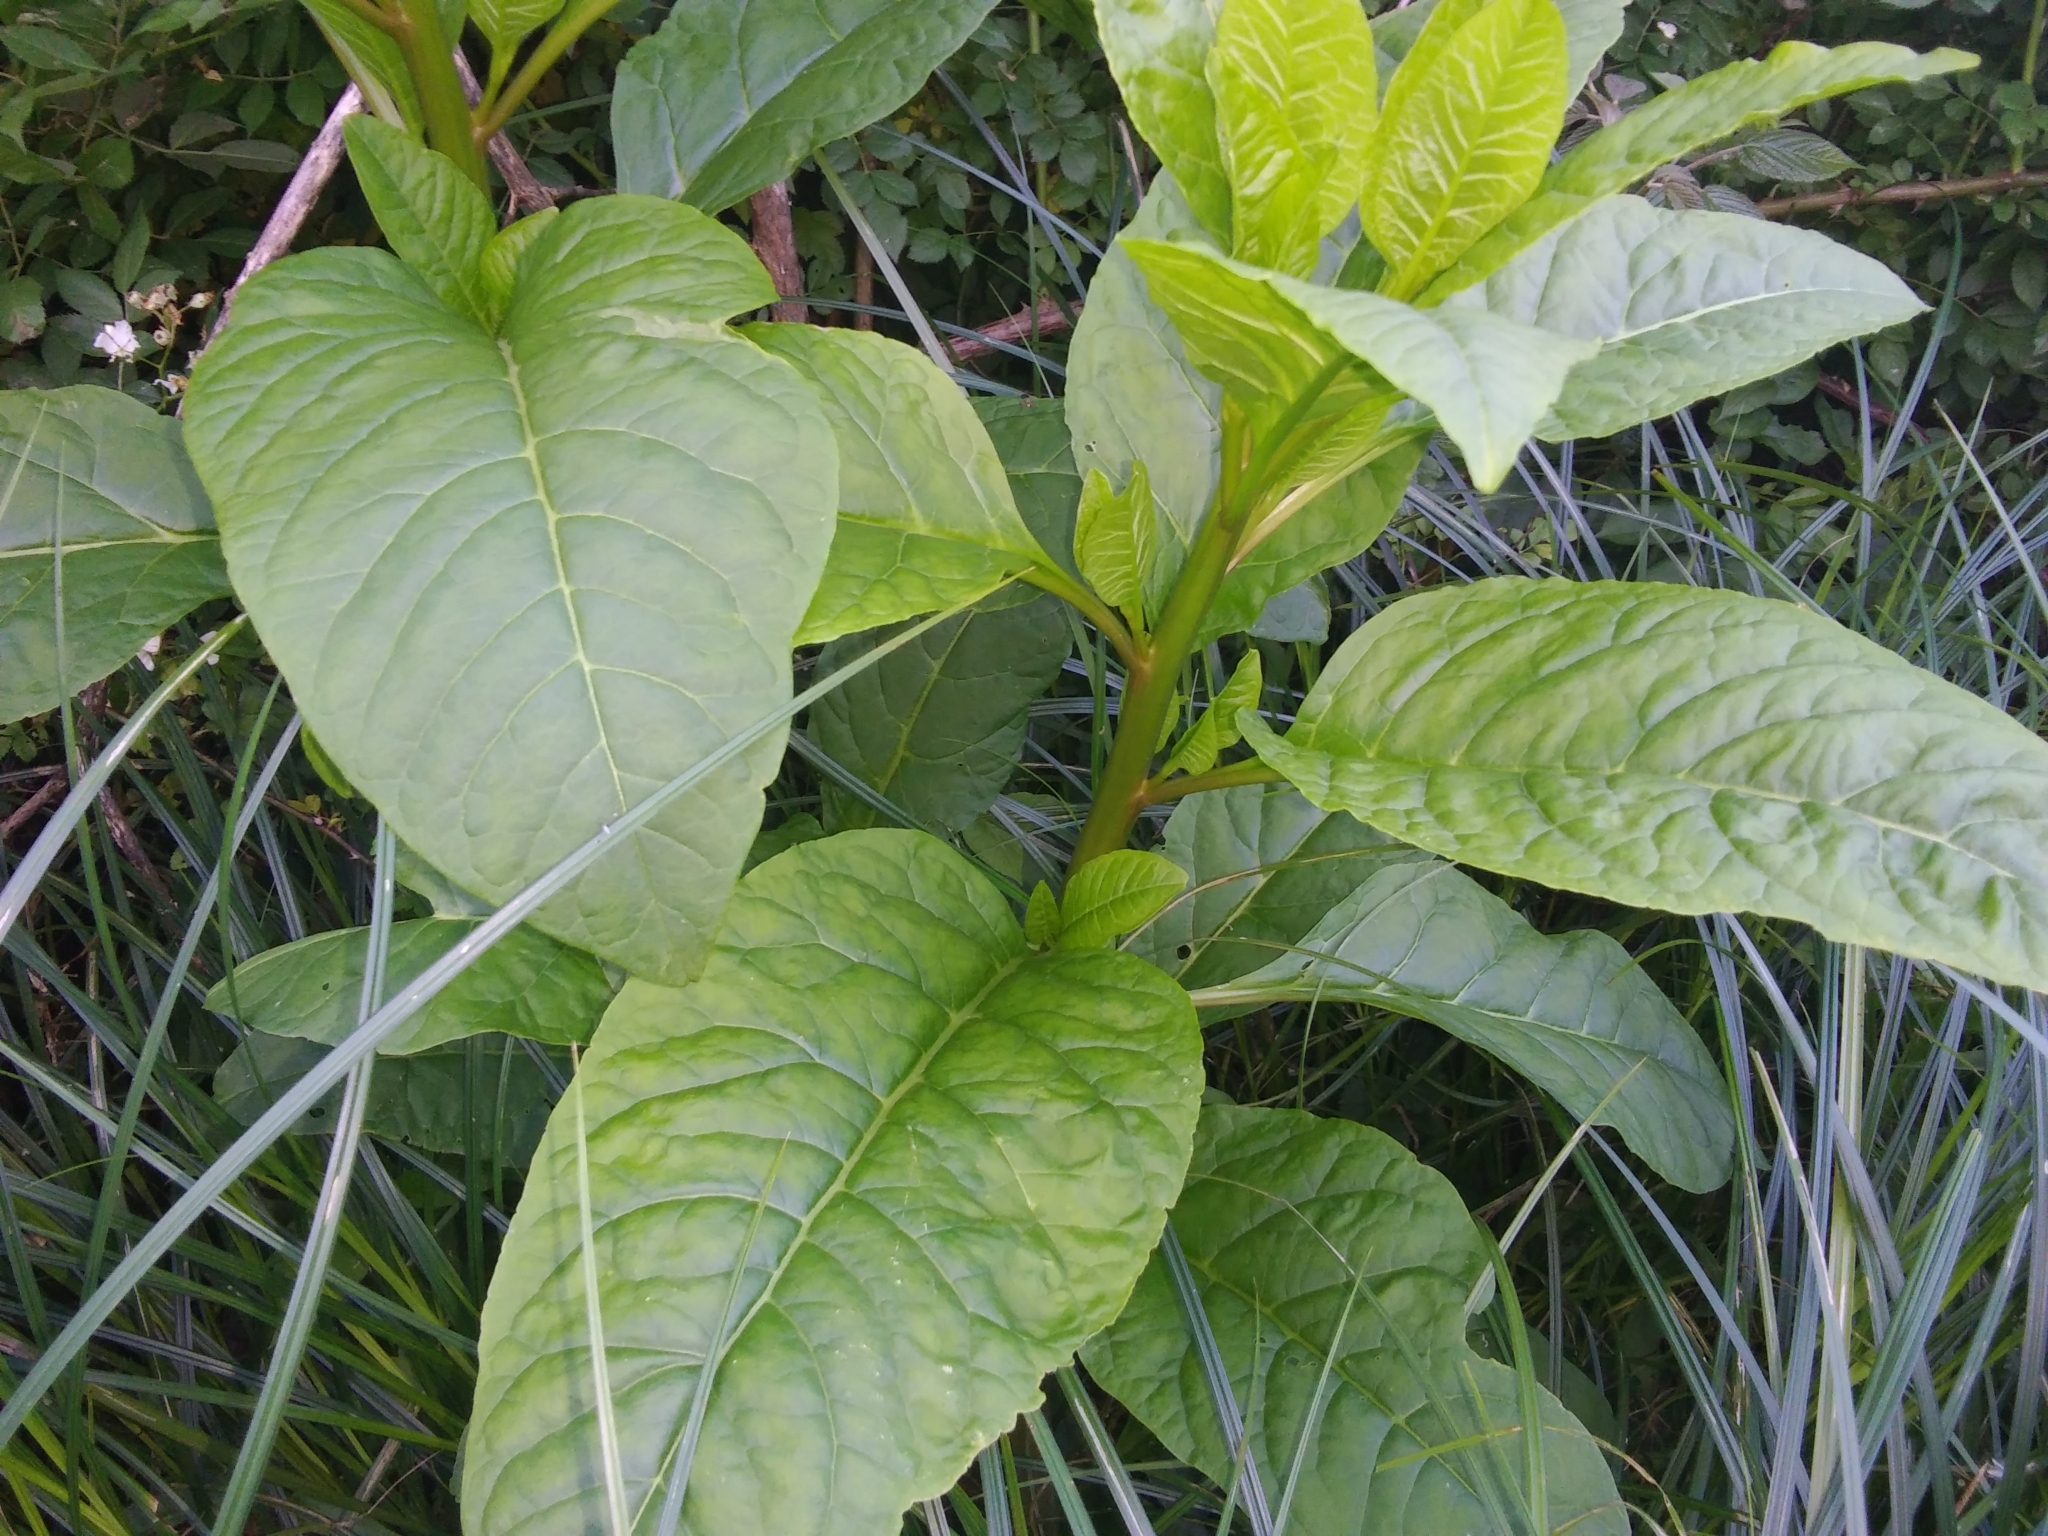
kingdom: Plantae
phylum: Tracheophyta
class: Magnoliopsida
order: Caryophyllales
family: Phytolaccaceae
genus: Phytolacca
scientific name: Phytolacca americana
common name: American pokeweed
